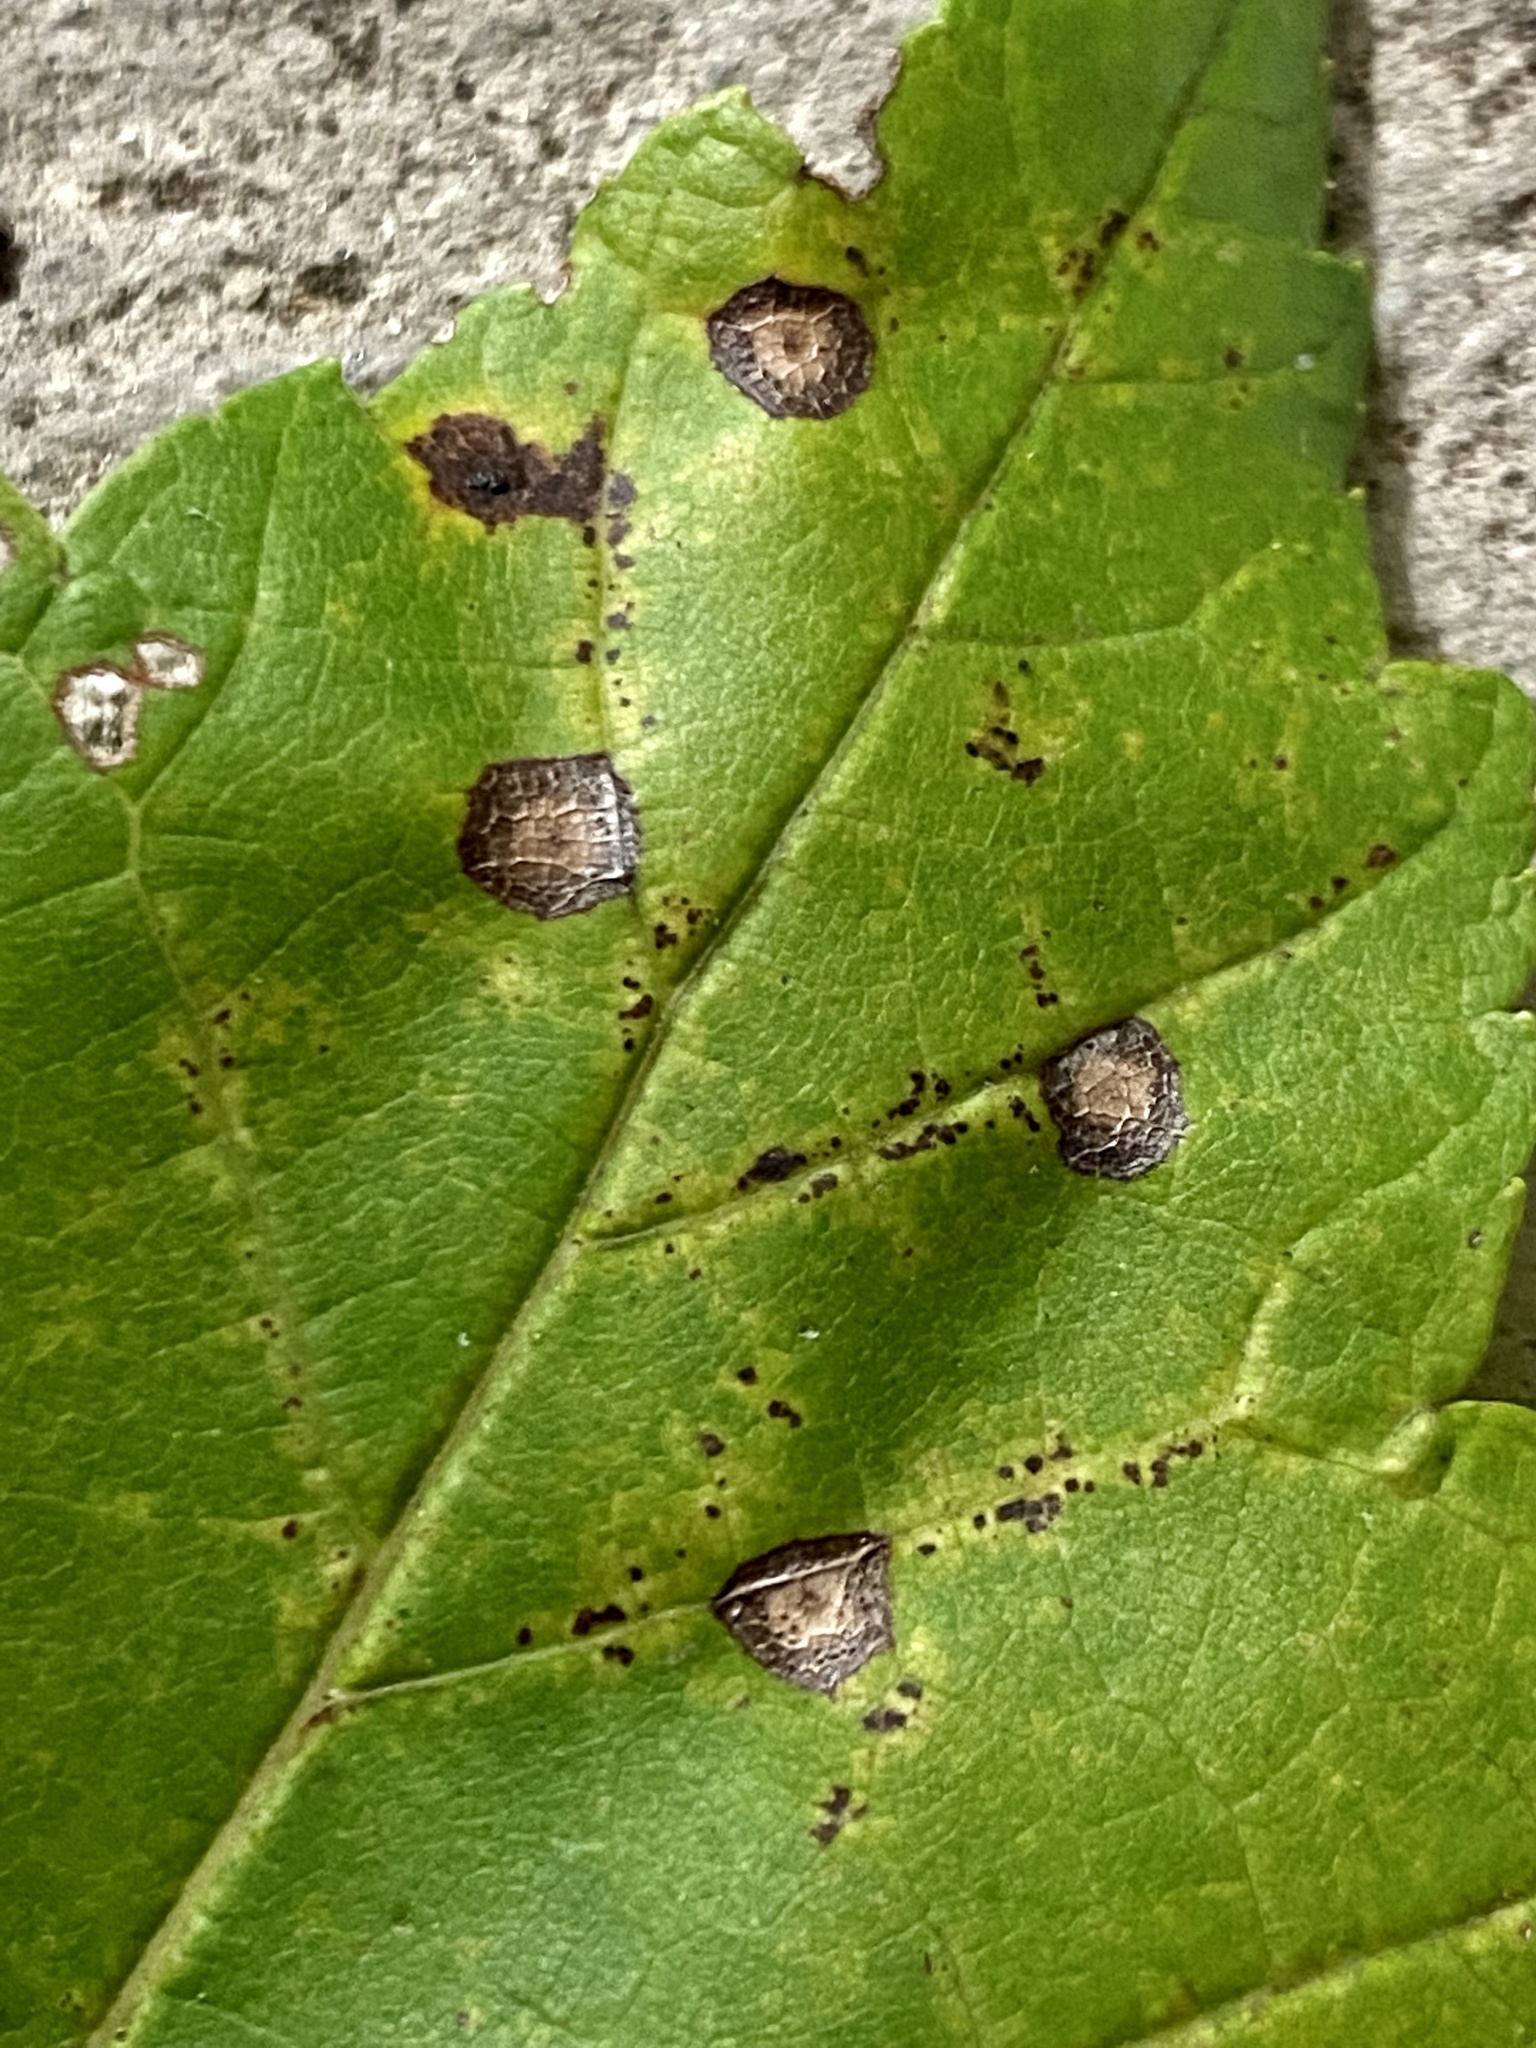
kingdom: Animalia
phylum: Arthropoda
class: Insecta
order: Diptera
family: Cecidomyiidae
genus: Acericecis
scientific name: Acericecis ocellaris
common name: Ocellate gall midge
